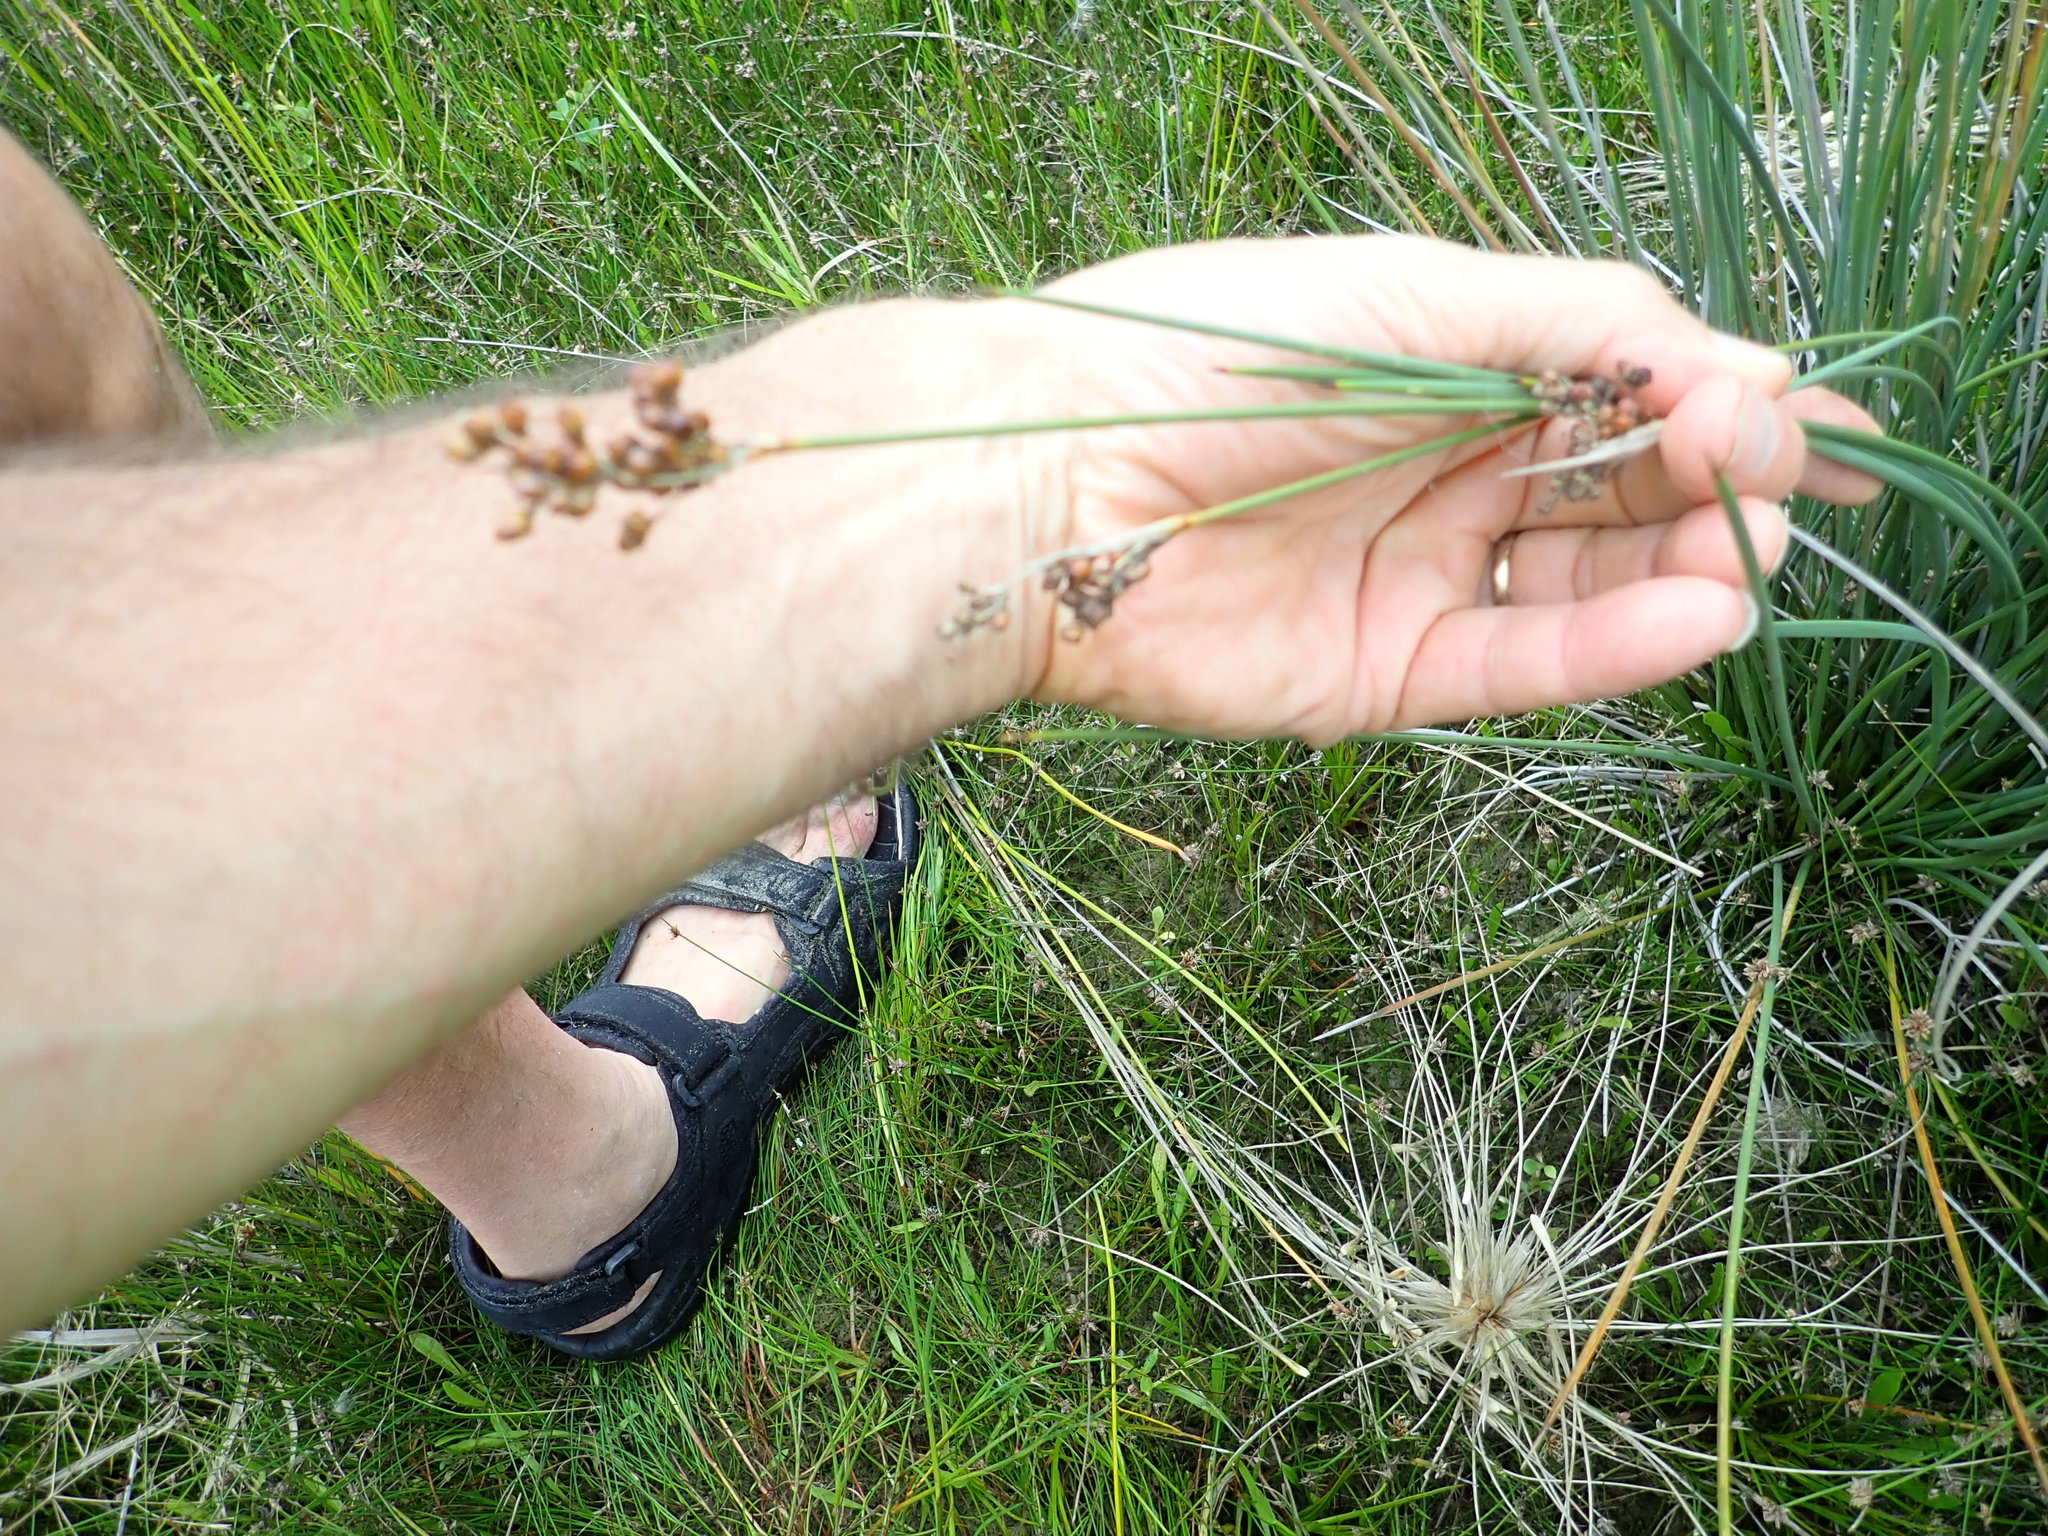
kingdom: Plantae
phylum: Tracheophyta
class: Liliopsida
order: Poales
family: Juncaceae
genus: Juncus
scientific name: Juncus acutus
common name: Sharp rush
